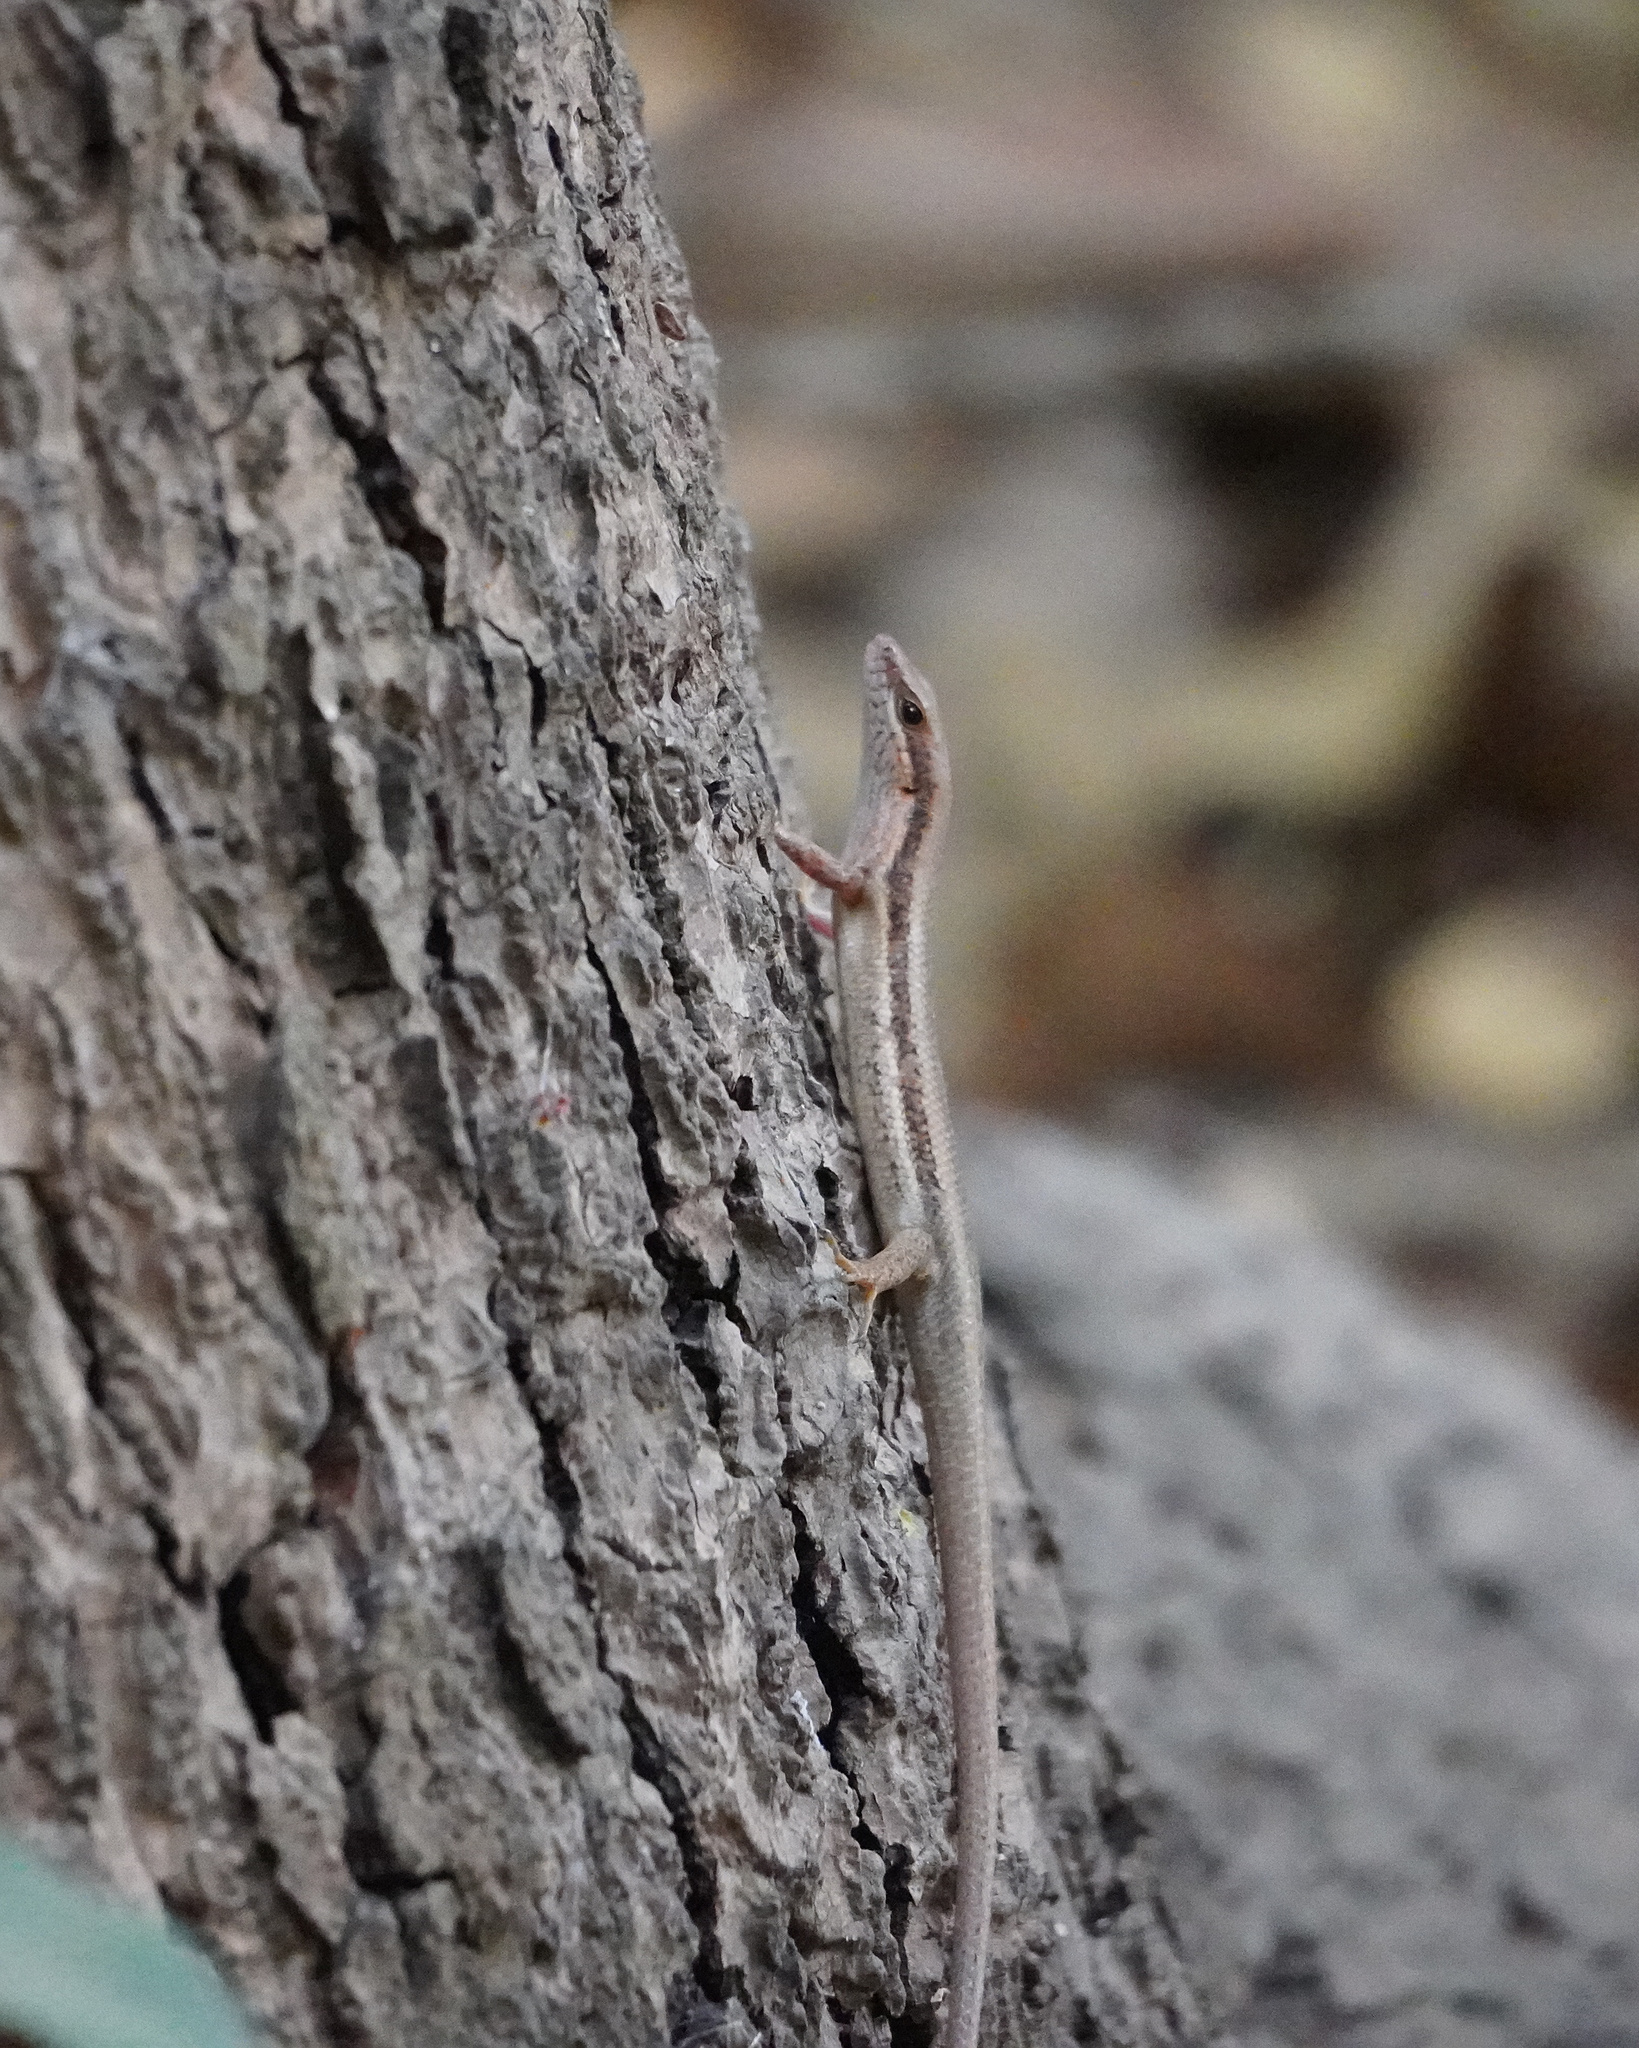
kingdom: Animalia
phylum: Chordata
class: Squamata
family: Scincidae
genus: Trachylepis
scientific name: Trachylepis affinis
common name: Senegal mabuya
